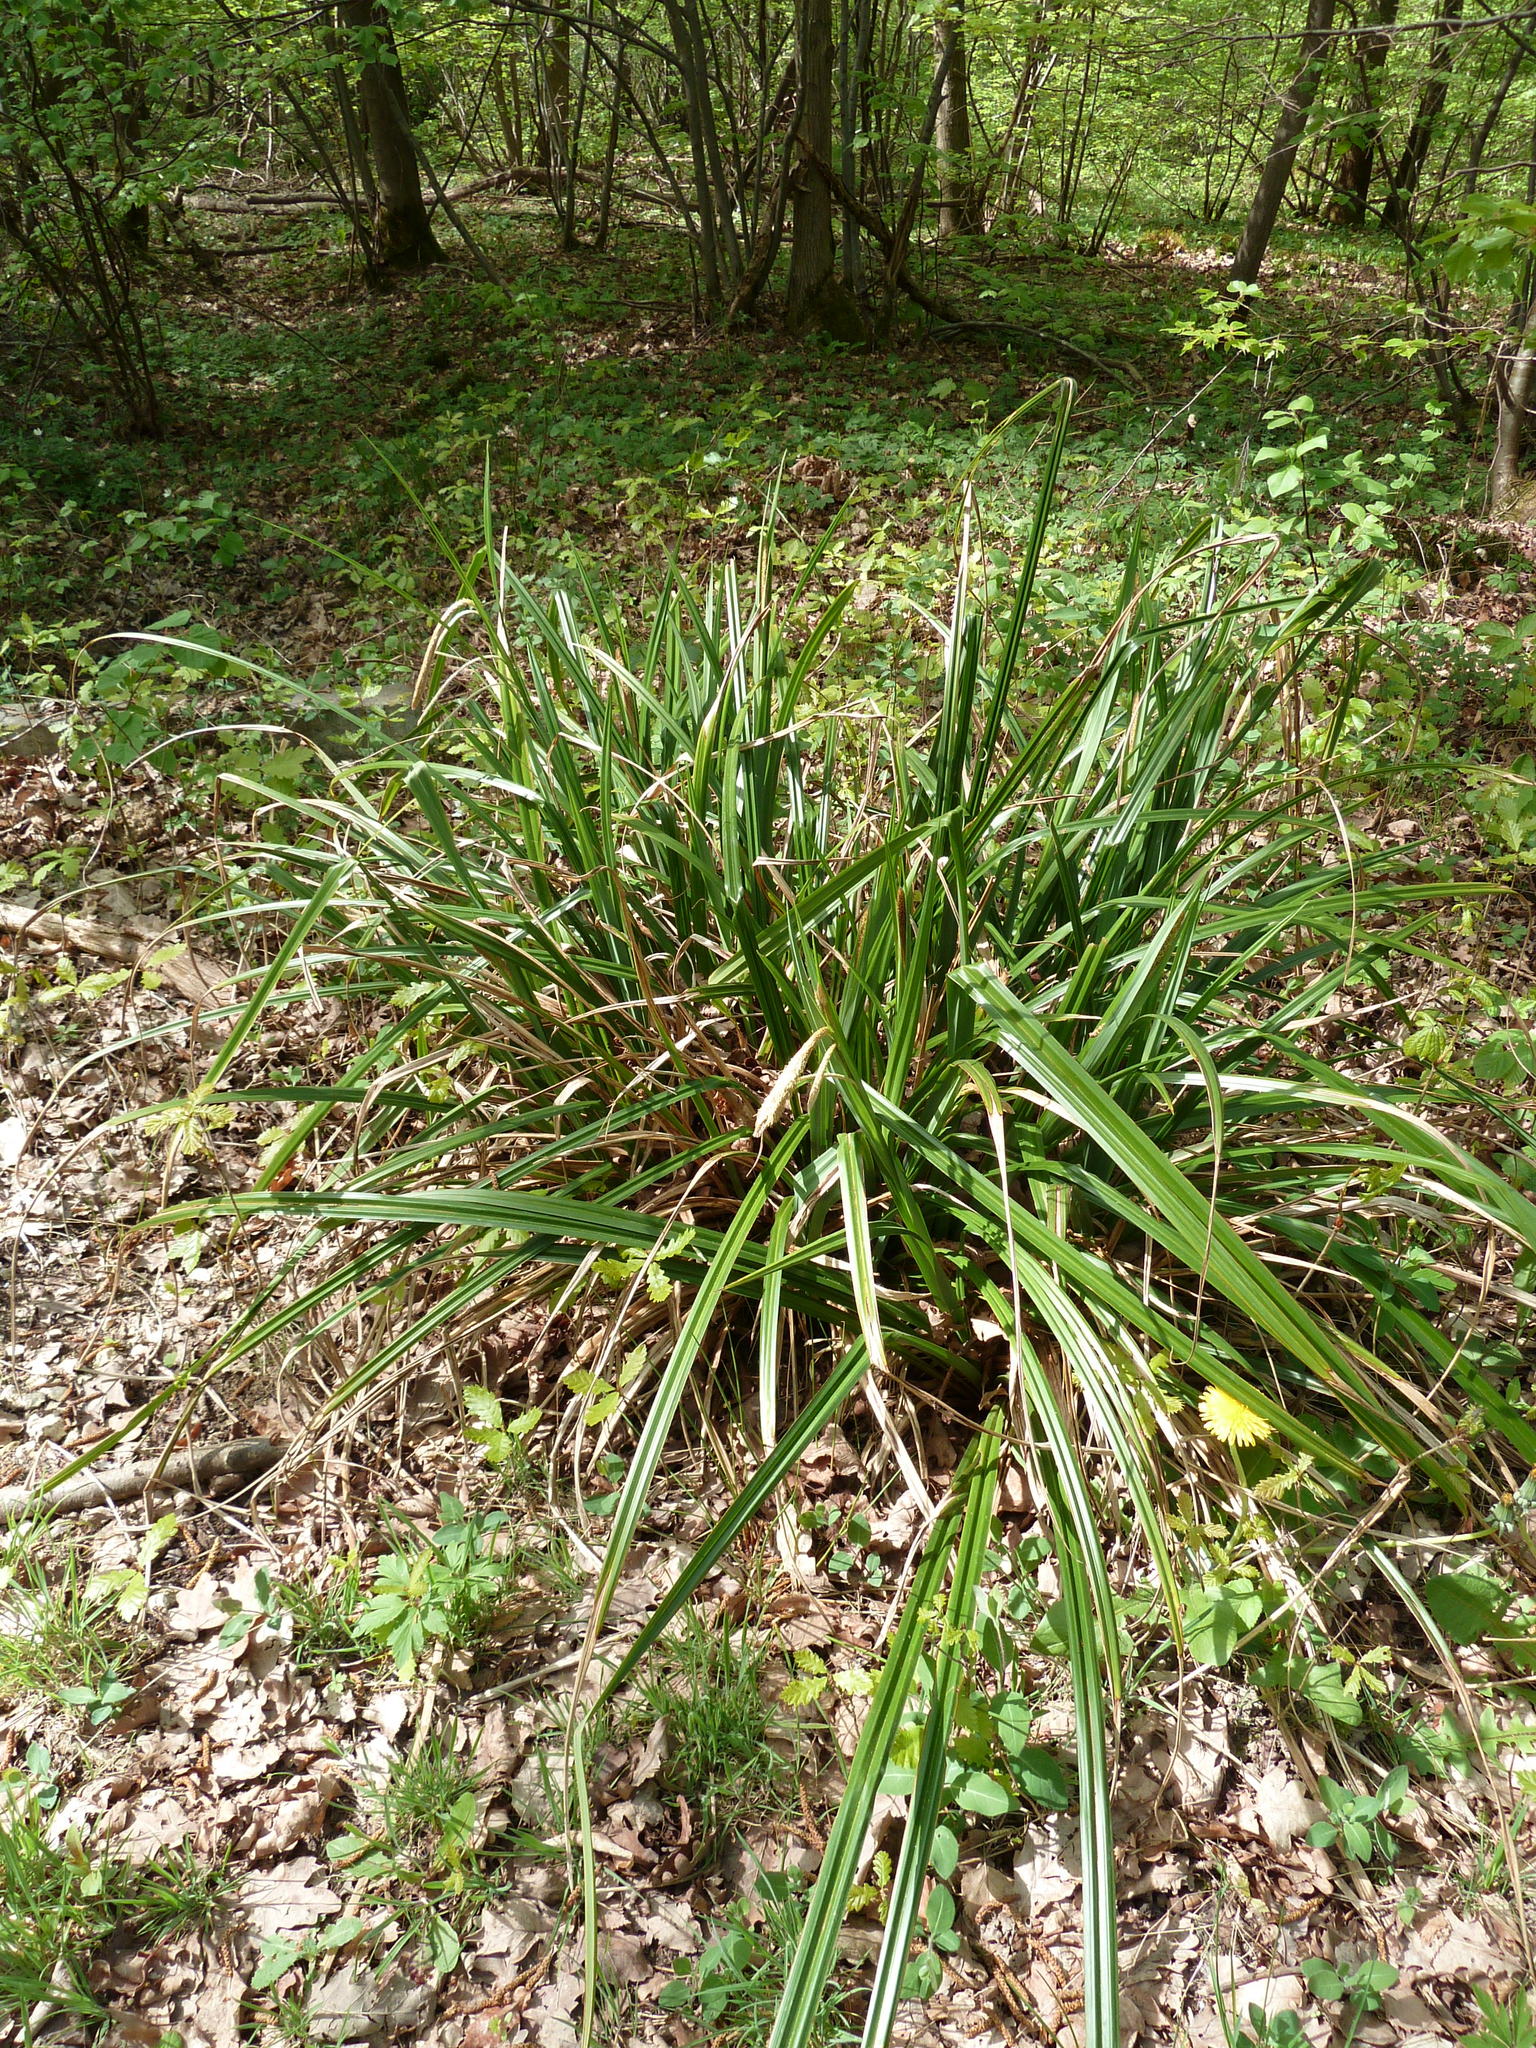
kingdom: Plantae
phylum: Tracheophyta
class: Liliopsida
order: Poales
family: Cyperaceae
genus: Carex
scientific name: Carex pendula
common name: Pendulous sedge
